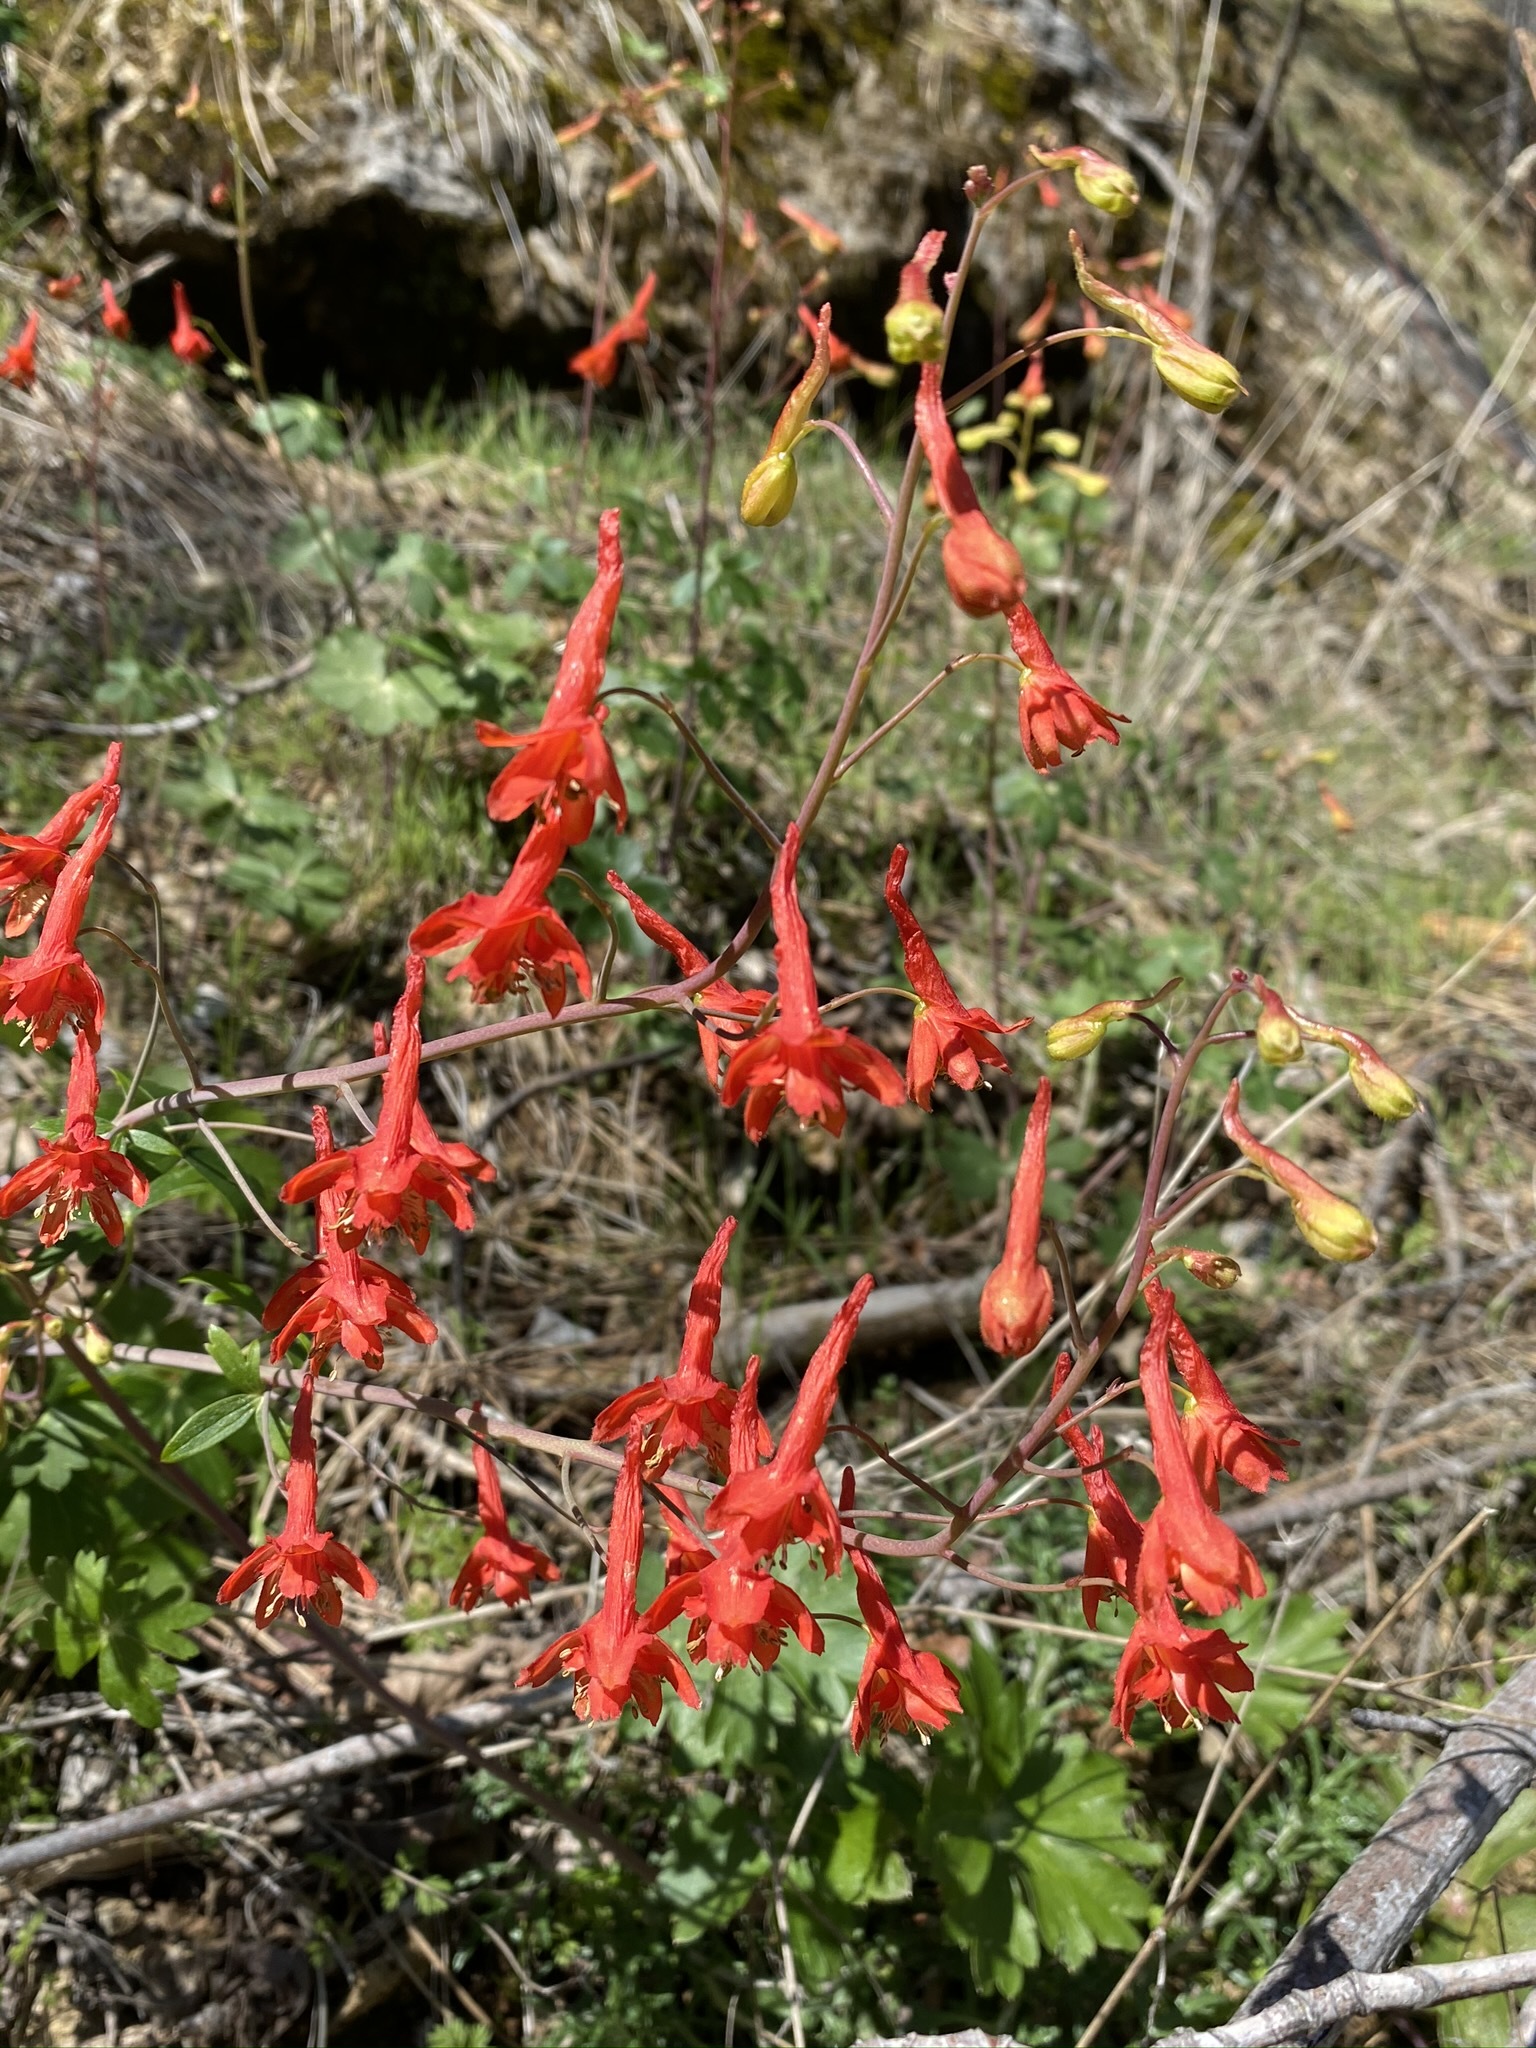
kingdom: Plantae
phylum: Tracheophyta
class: Magnoliopsida
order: Ranunculales
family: Ranunculaceae
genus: Delphinium
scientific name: Delphinium nudicaule
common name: Red larkspur
